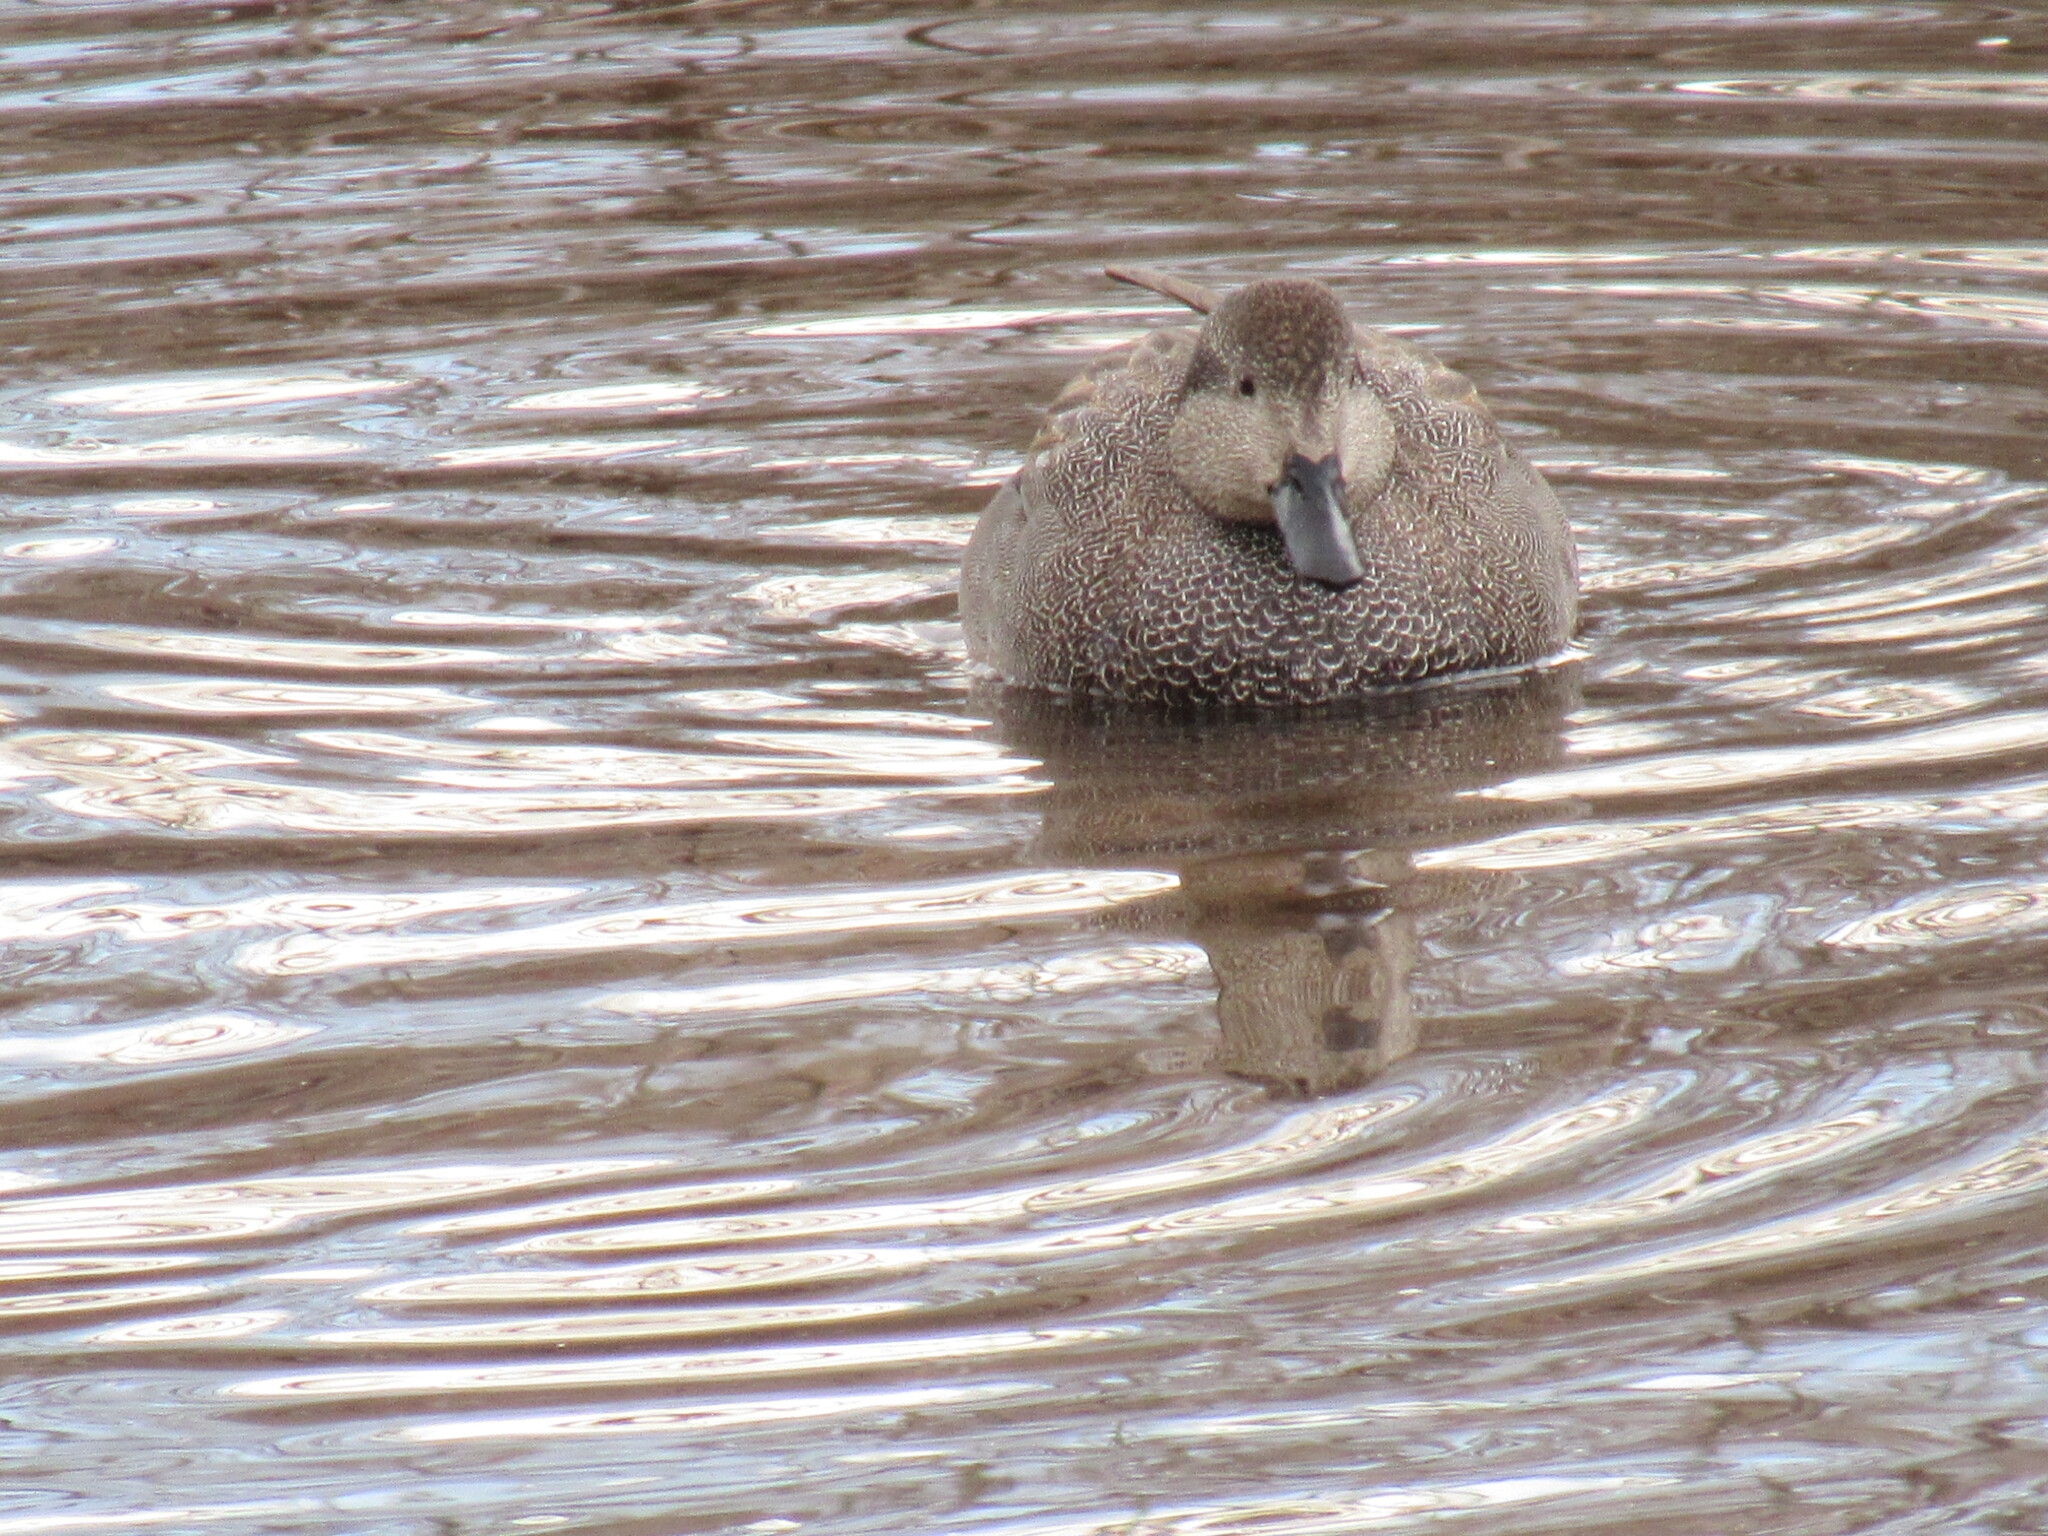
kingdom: Animalia
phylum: Chordata
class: Aves
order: Anseriformes
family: Anatidae
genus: Mareca
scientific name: Mareca strepera
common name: Gadwall
